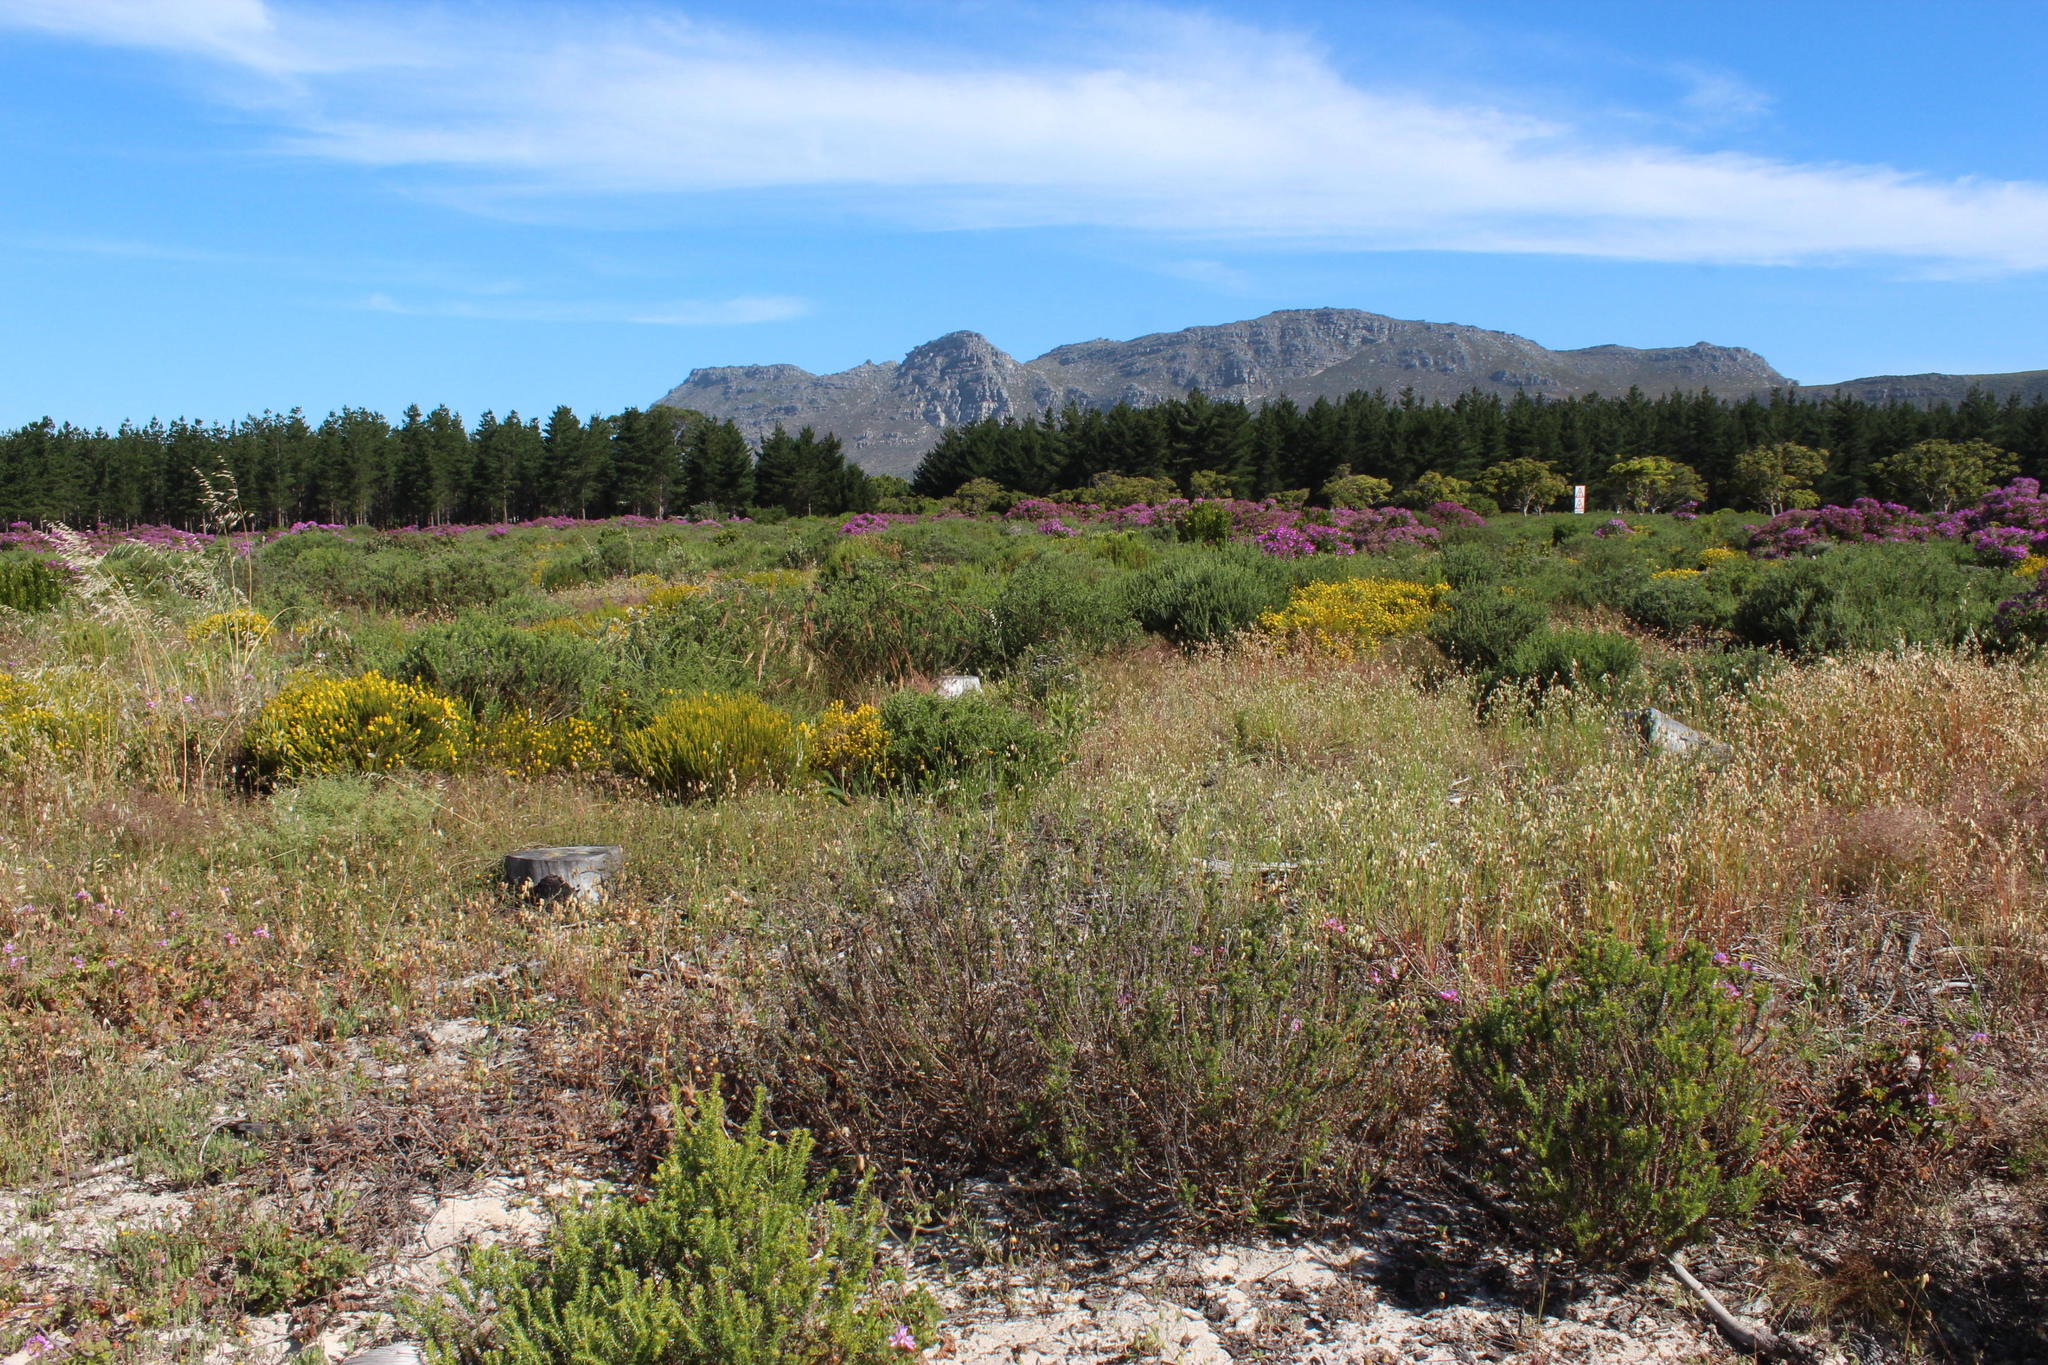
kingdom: Plantae
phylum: Tracheophyta
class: Liliopsida
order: Poales
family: Poaceae
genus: Briza
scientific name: Briza maxima
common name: Big quakinggrass
